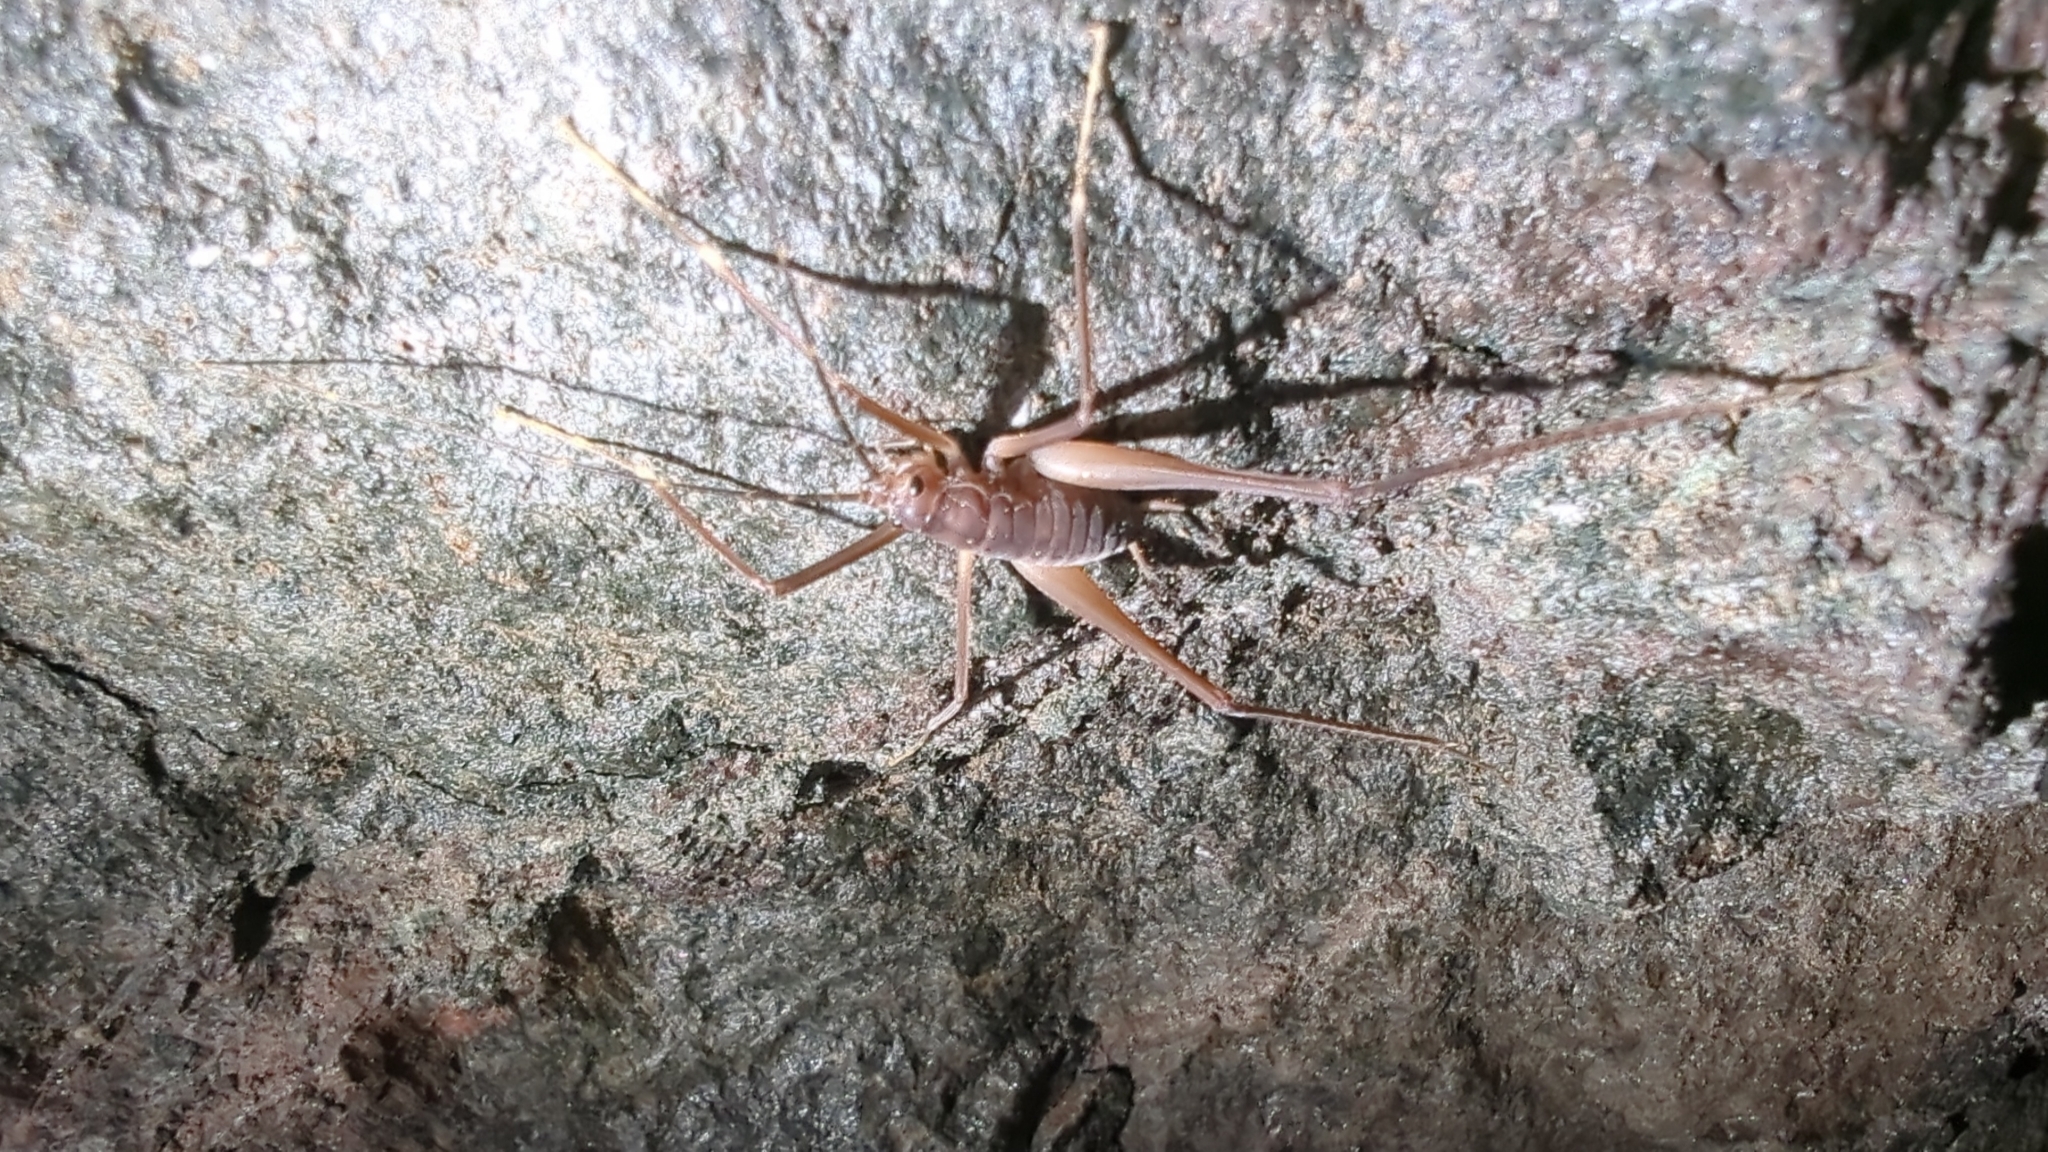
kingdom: Animalia
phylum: Arthropoda
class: Insecta
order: Orthoptera
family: Rhaphidophoridae
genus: Tropidischia
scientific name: Tropidischia xanthostoma
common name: Square-legged camel cricket
